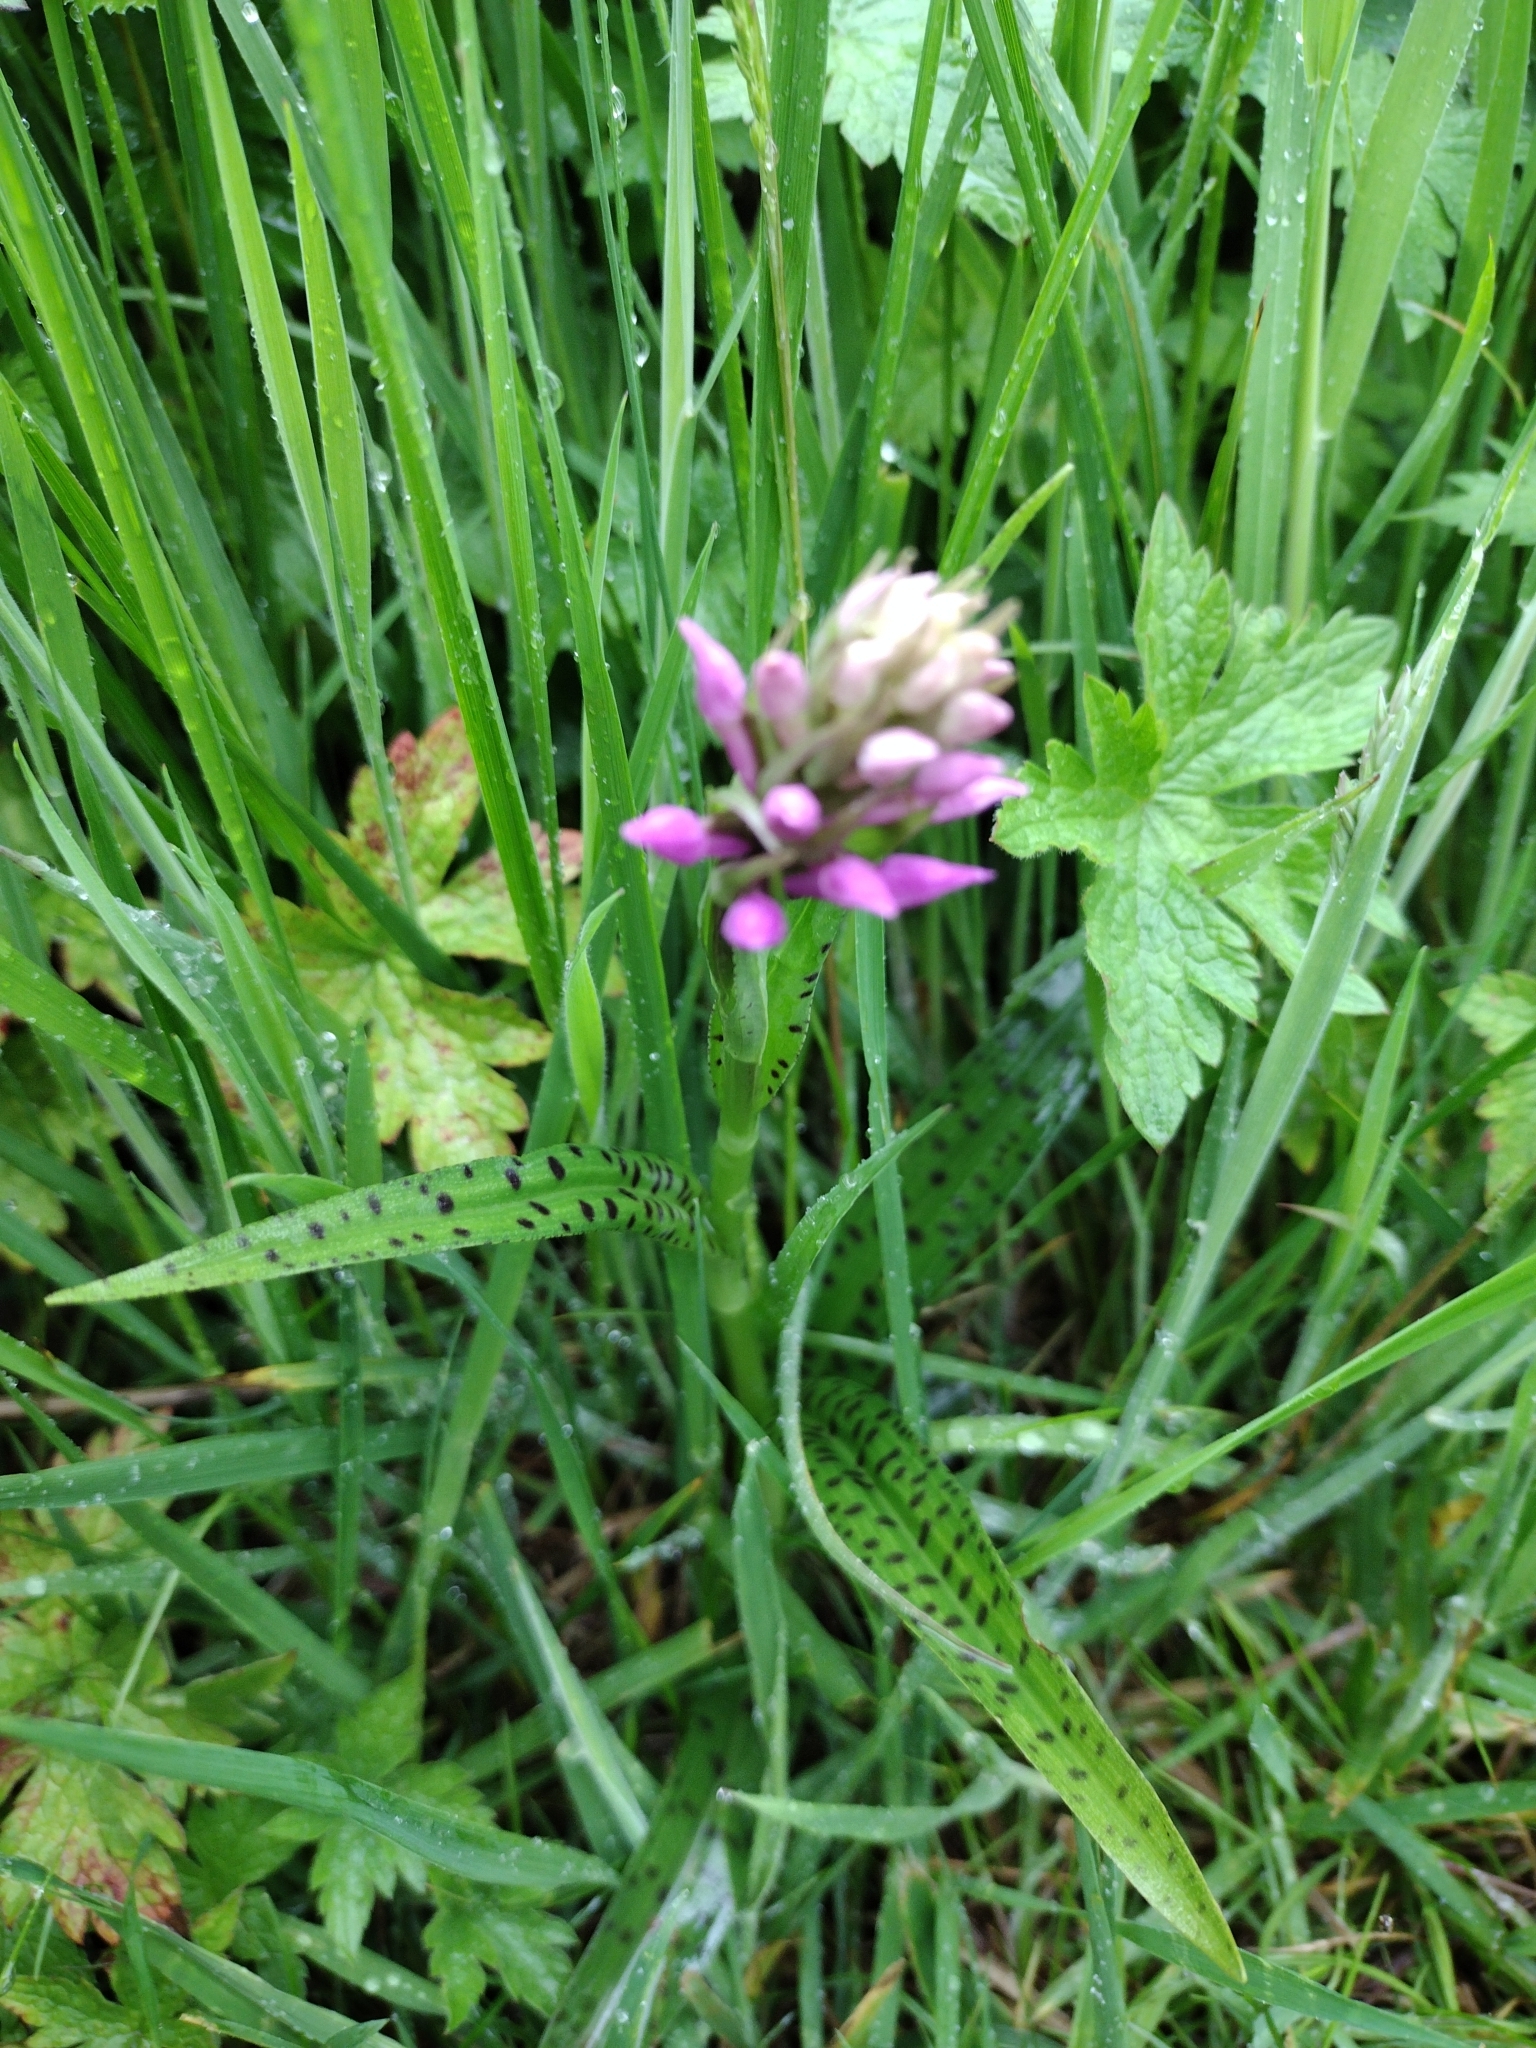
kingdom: Plantae
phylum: Tracheophyta
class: Liliopsida
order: Asparagales
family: Orchidaceae
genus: Dactylorhiza
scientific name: Dactylorhiza maculata
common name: Heath spotted-orchid
